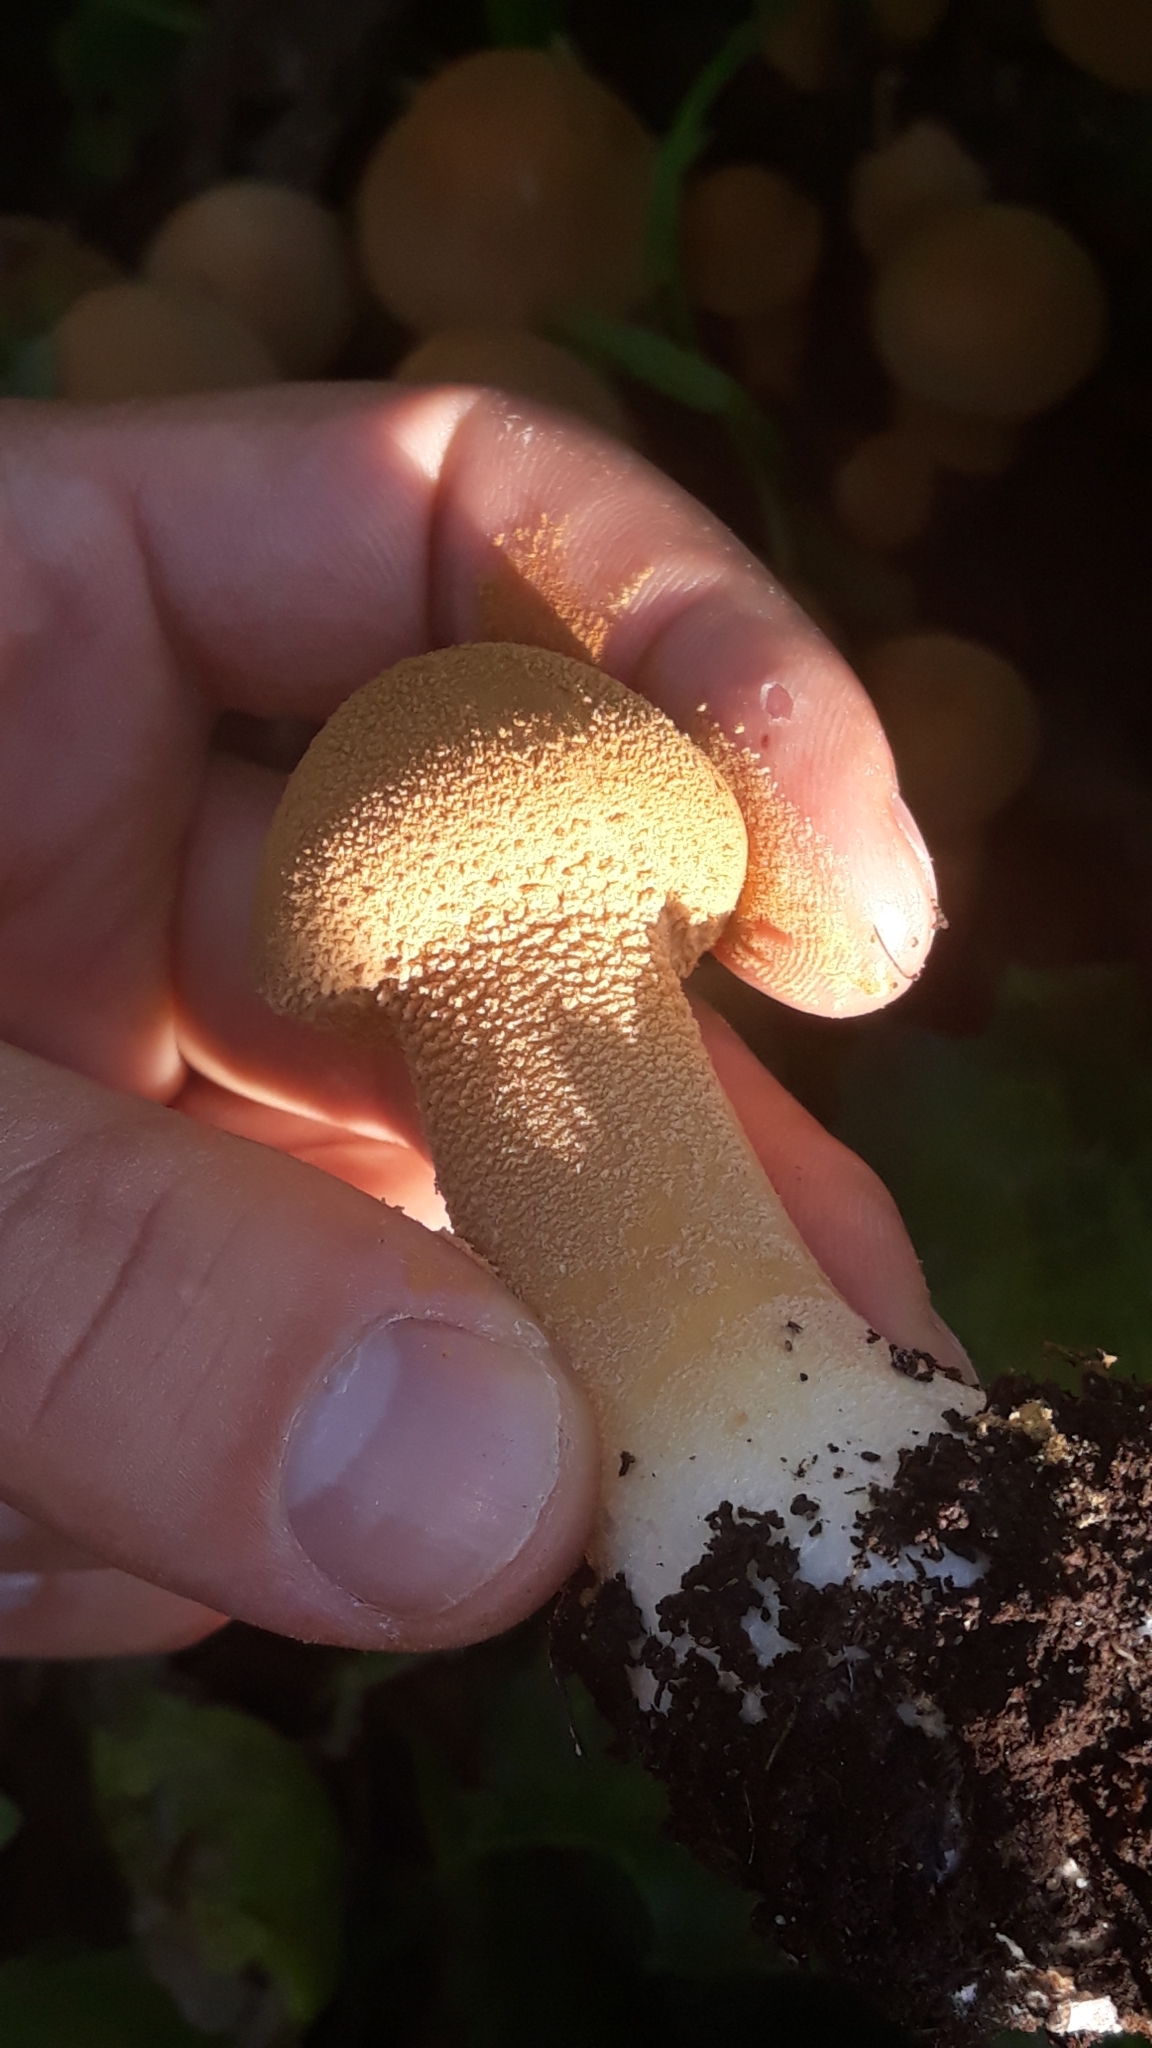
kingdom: Fungi
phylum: Basidiomycota
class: Agaricomycetes
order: Agaricales
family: Tricholomataceae
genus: Phaeolepiota
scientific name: Phaeolepiota aurea
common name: Golden bootleg
